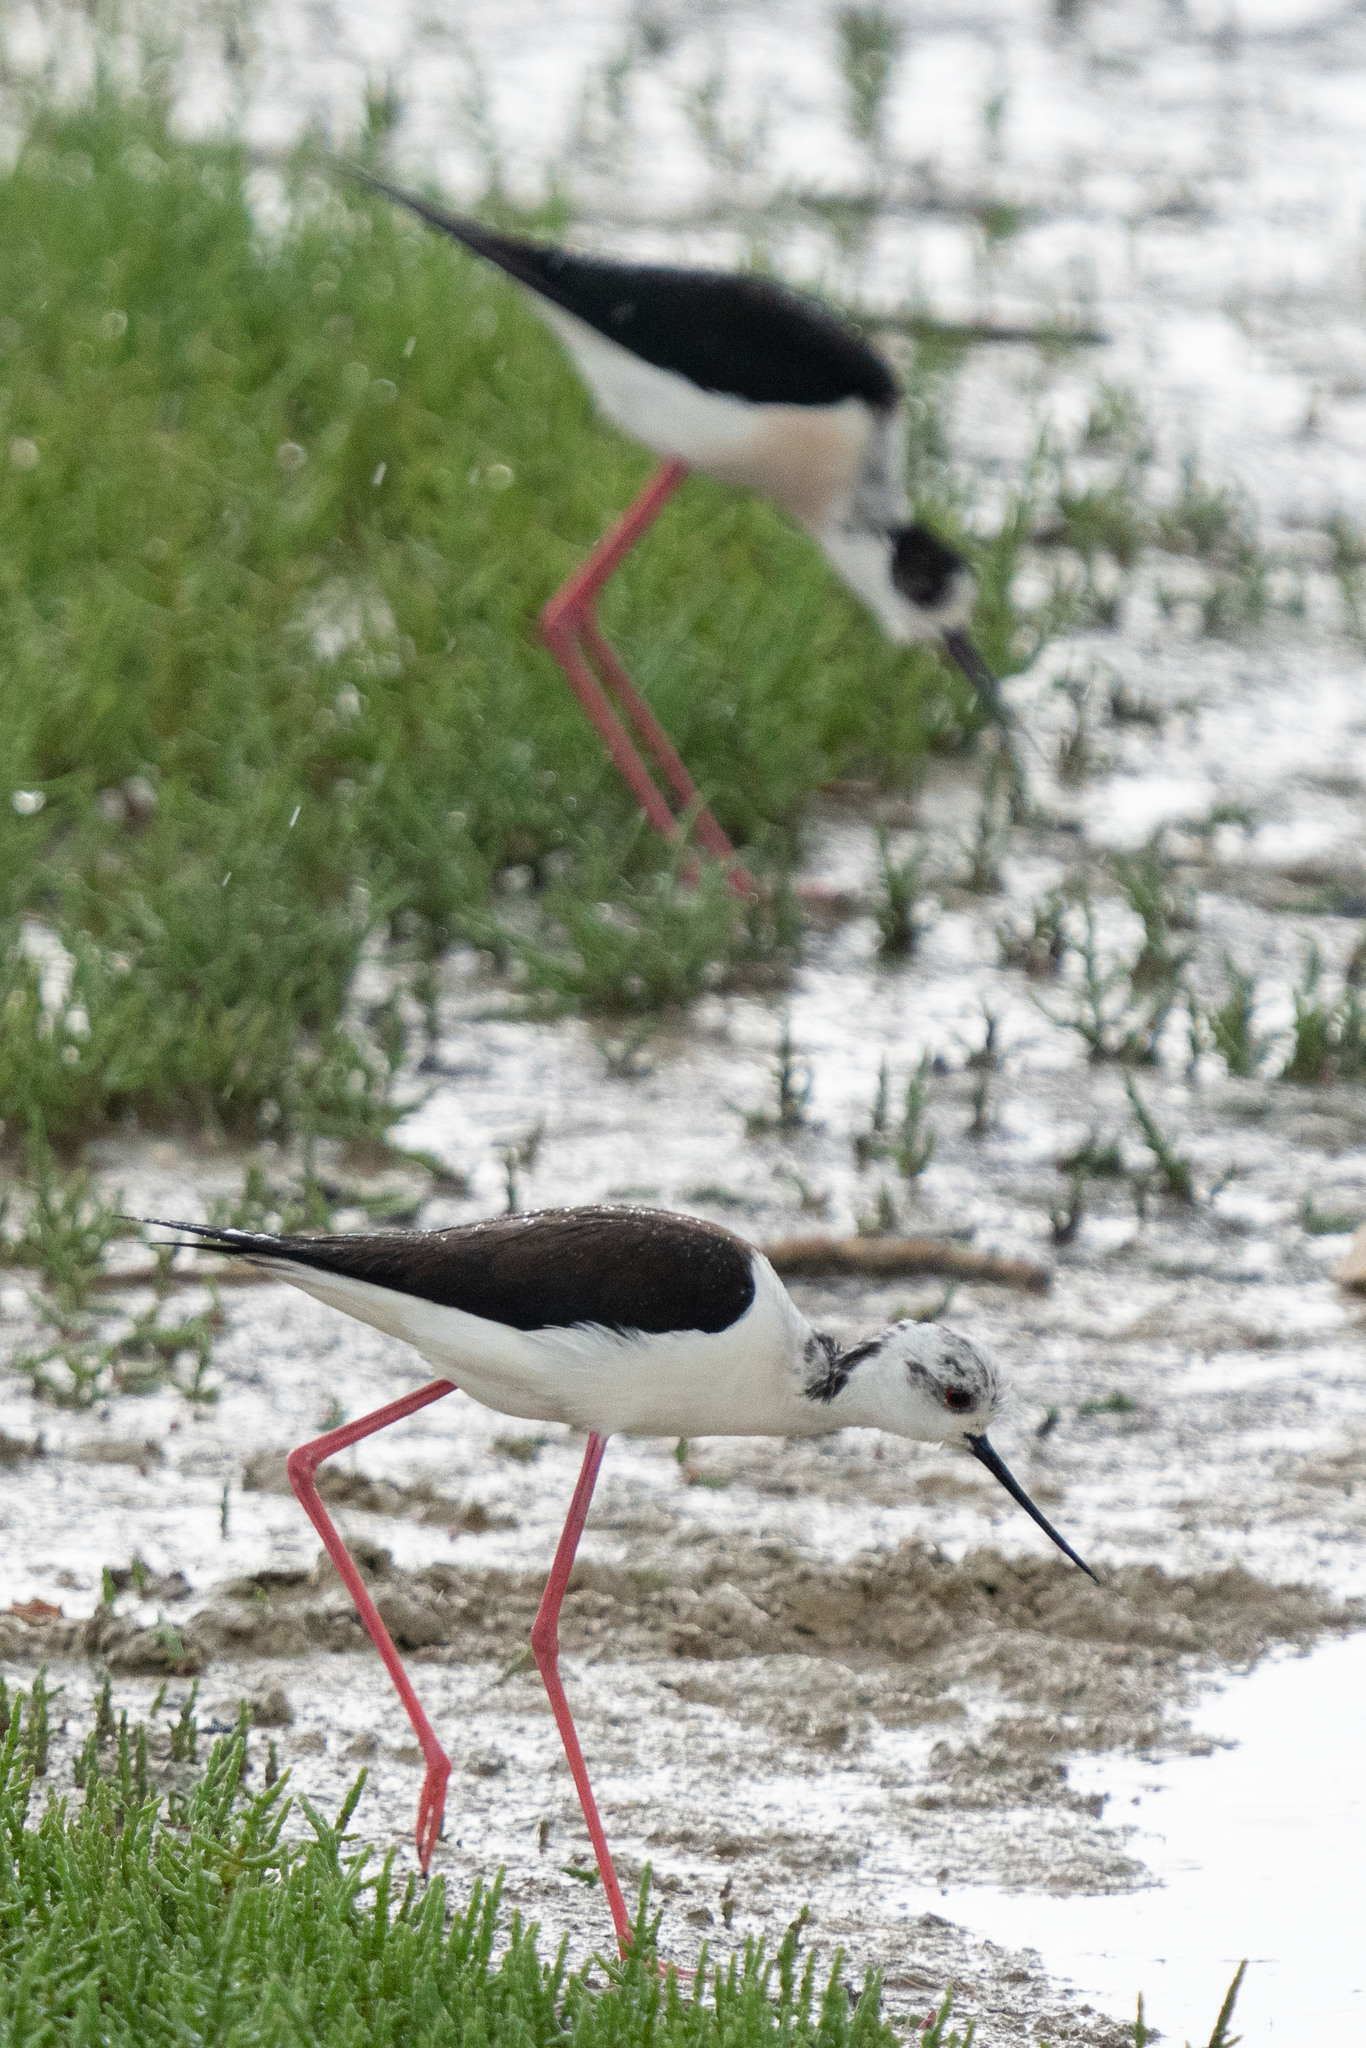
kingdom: Animalia
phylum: Chordata
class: Aves
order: Charadriiformes
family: Recurvirostridae
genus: Himantopus
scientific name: Himantopus himantopus
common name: Black-winged stilt
